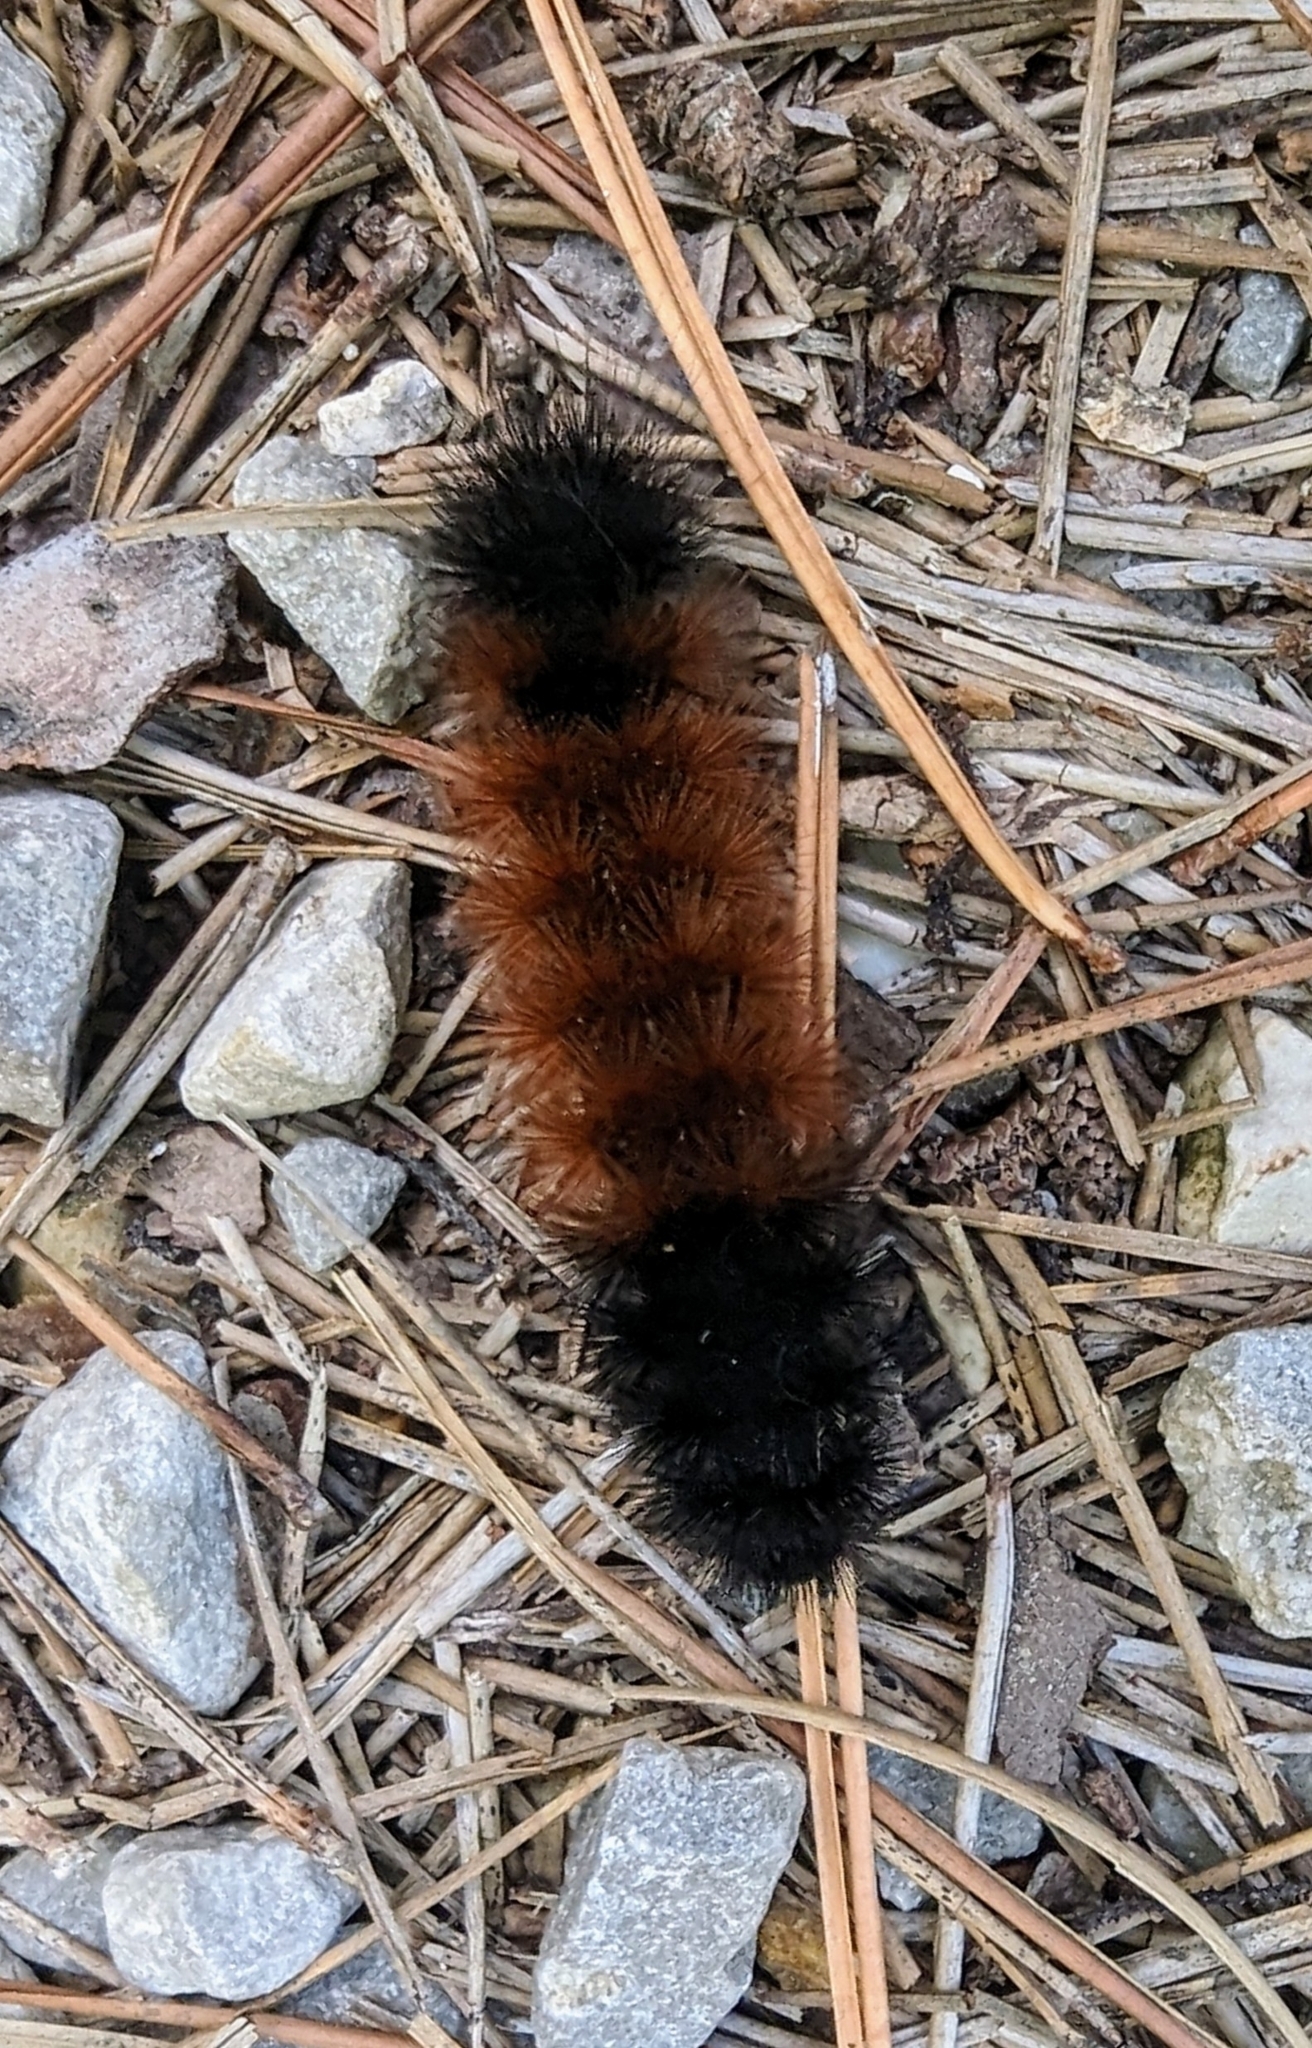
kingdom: Animalia
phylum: Arthropoda
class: Insecta
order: Lepidoptera
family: Erebidae
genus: Pyrrharctia
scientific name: Pyrrharctia isabella
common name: Isabella tiger moth
